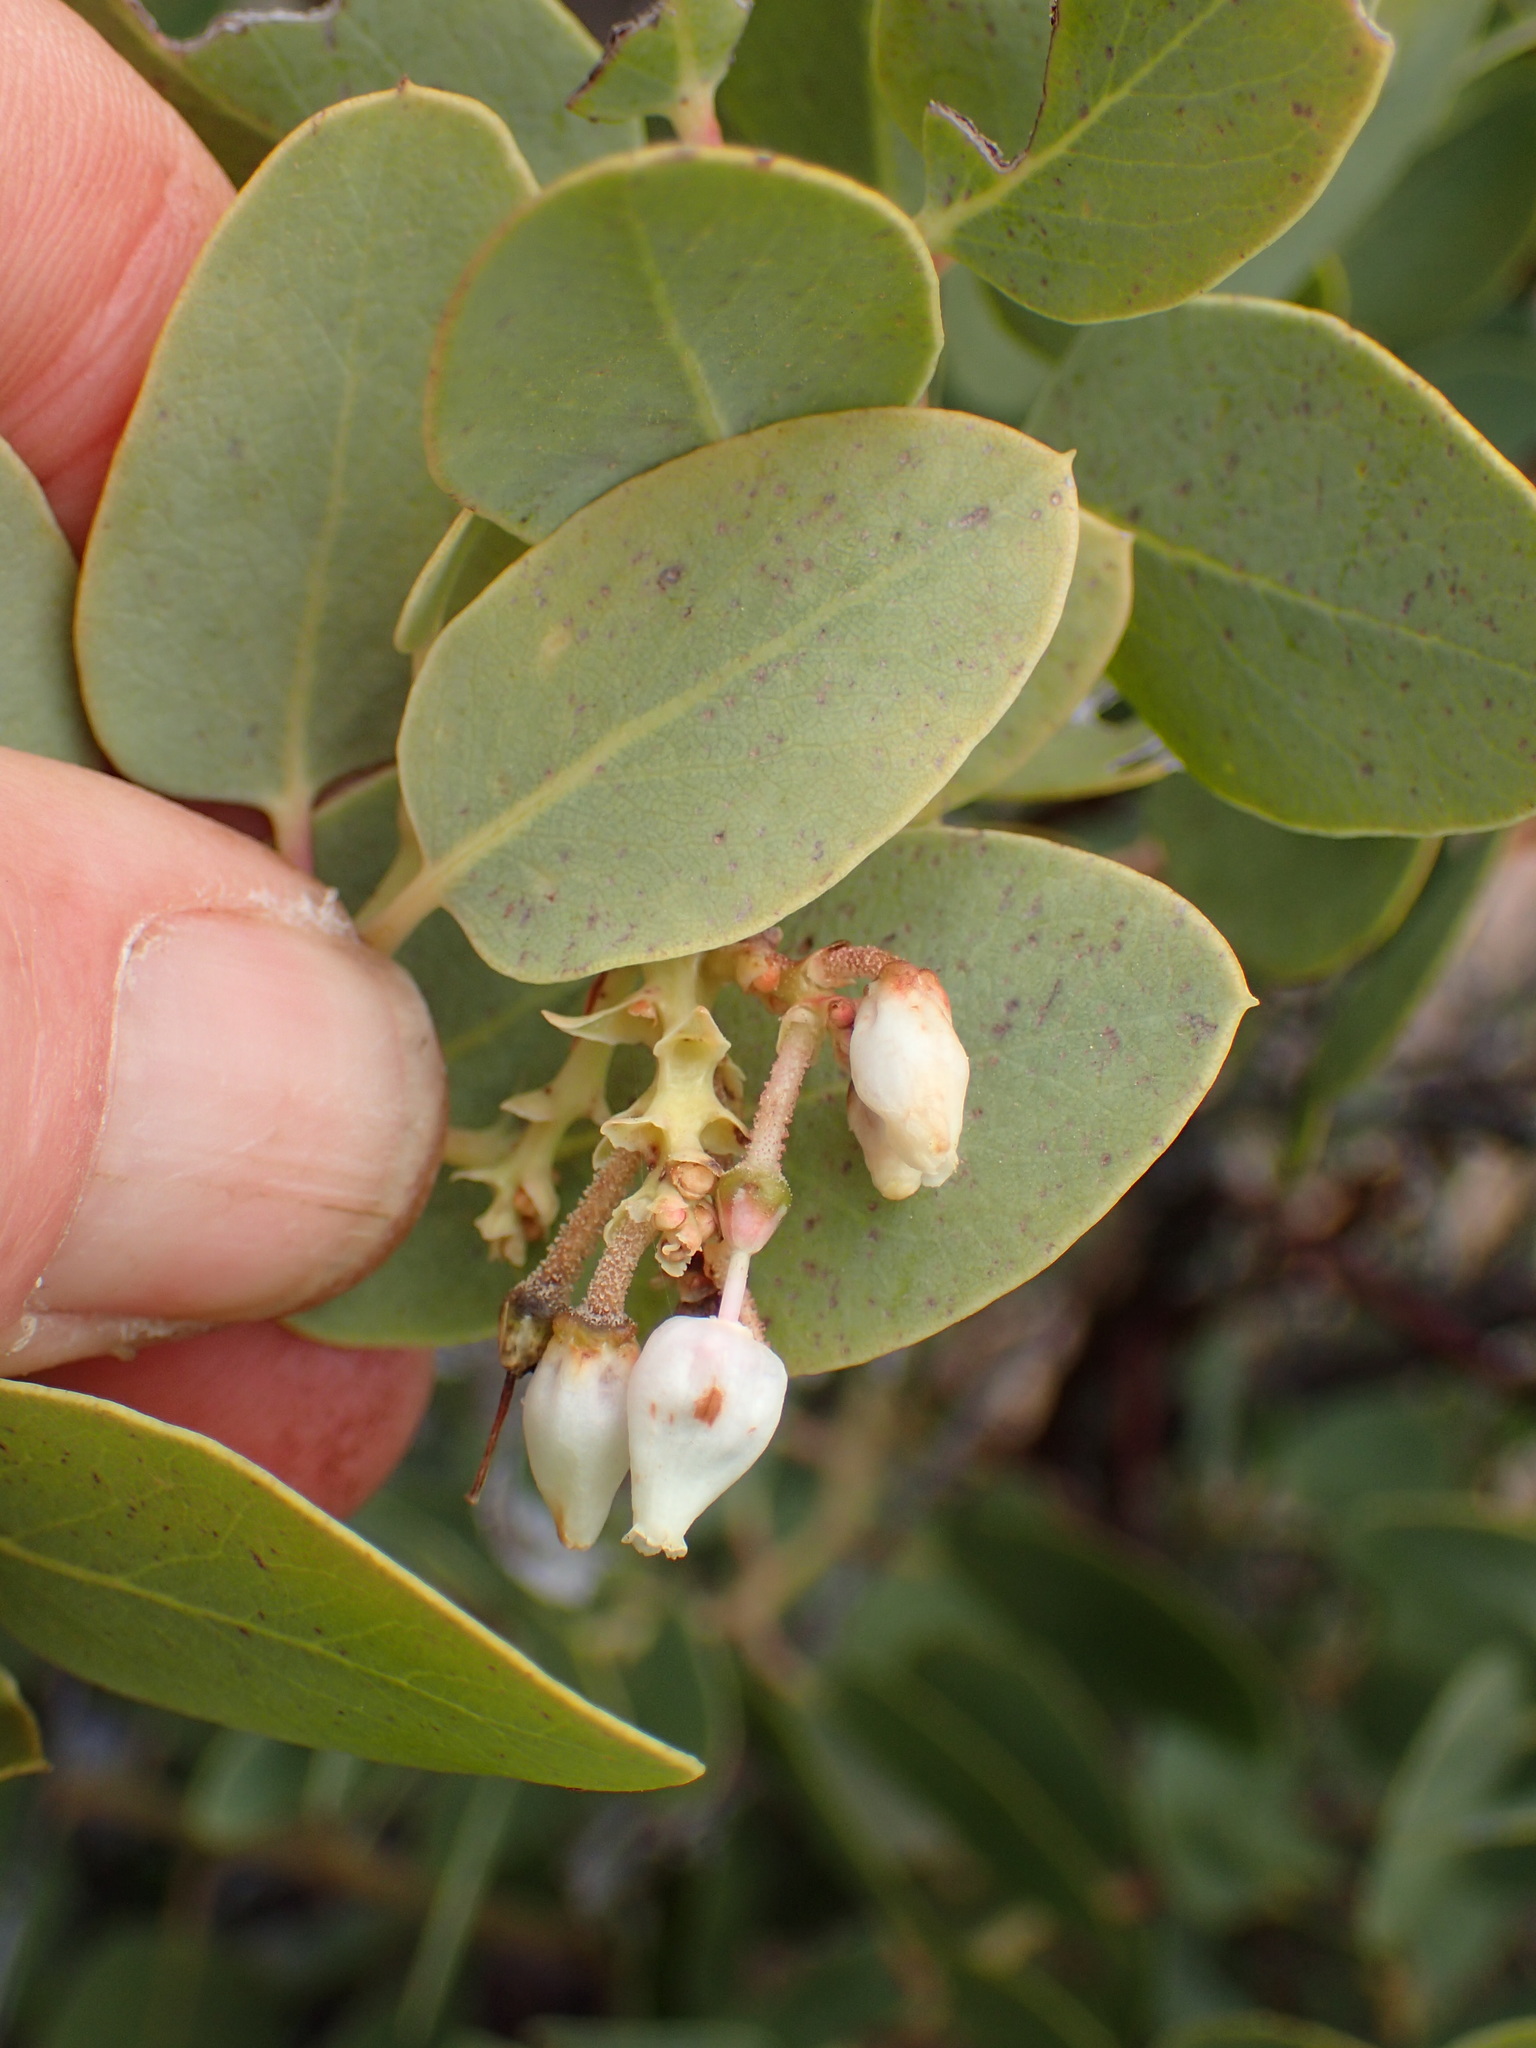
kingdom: Plantae
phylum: Tracheophyta
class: Magnoliopsida
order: Ericales
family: Ericaceae
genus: Arctostaphylos
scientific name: Arctostaphylos glauca
